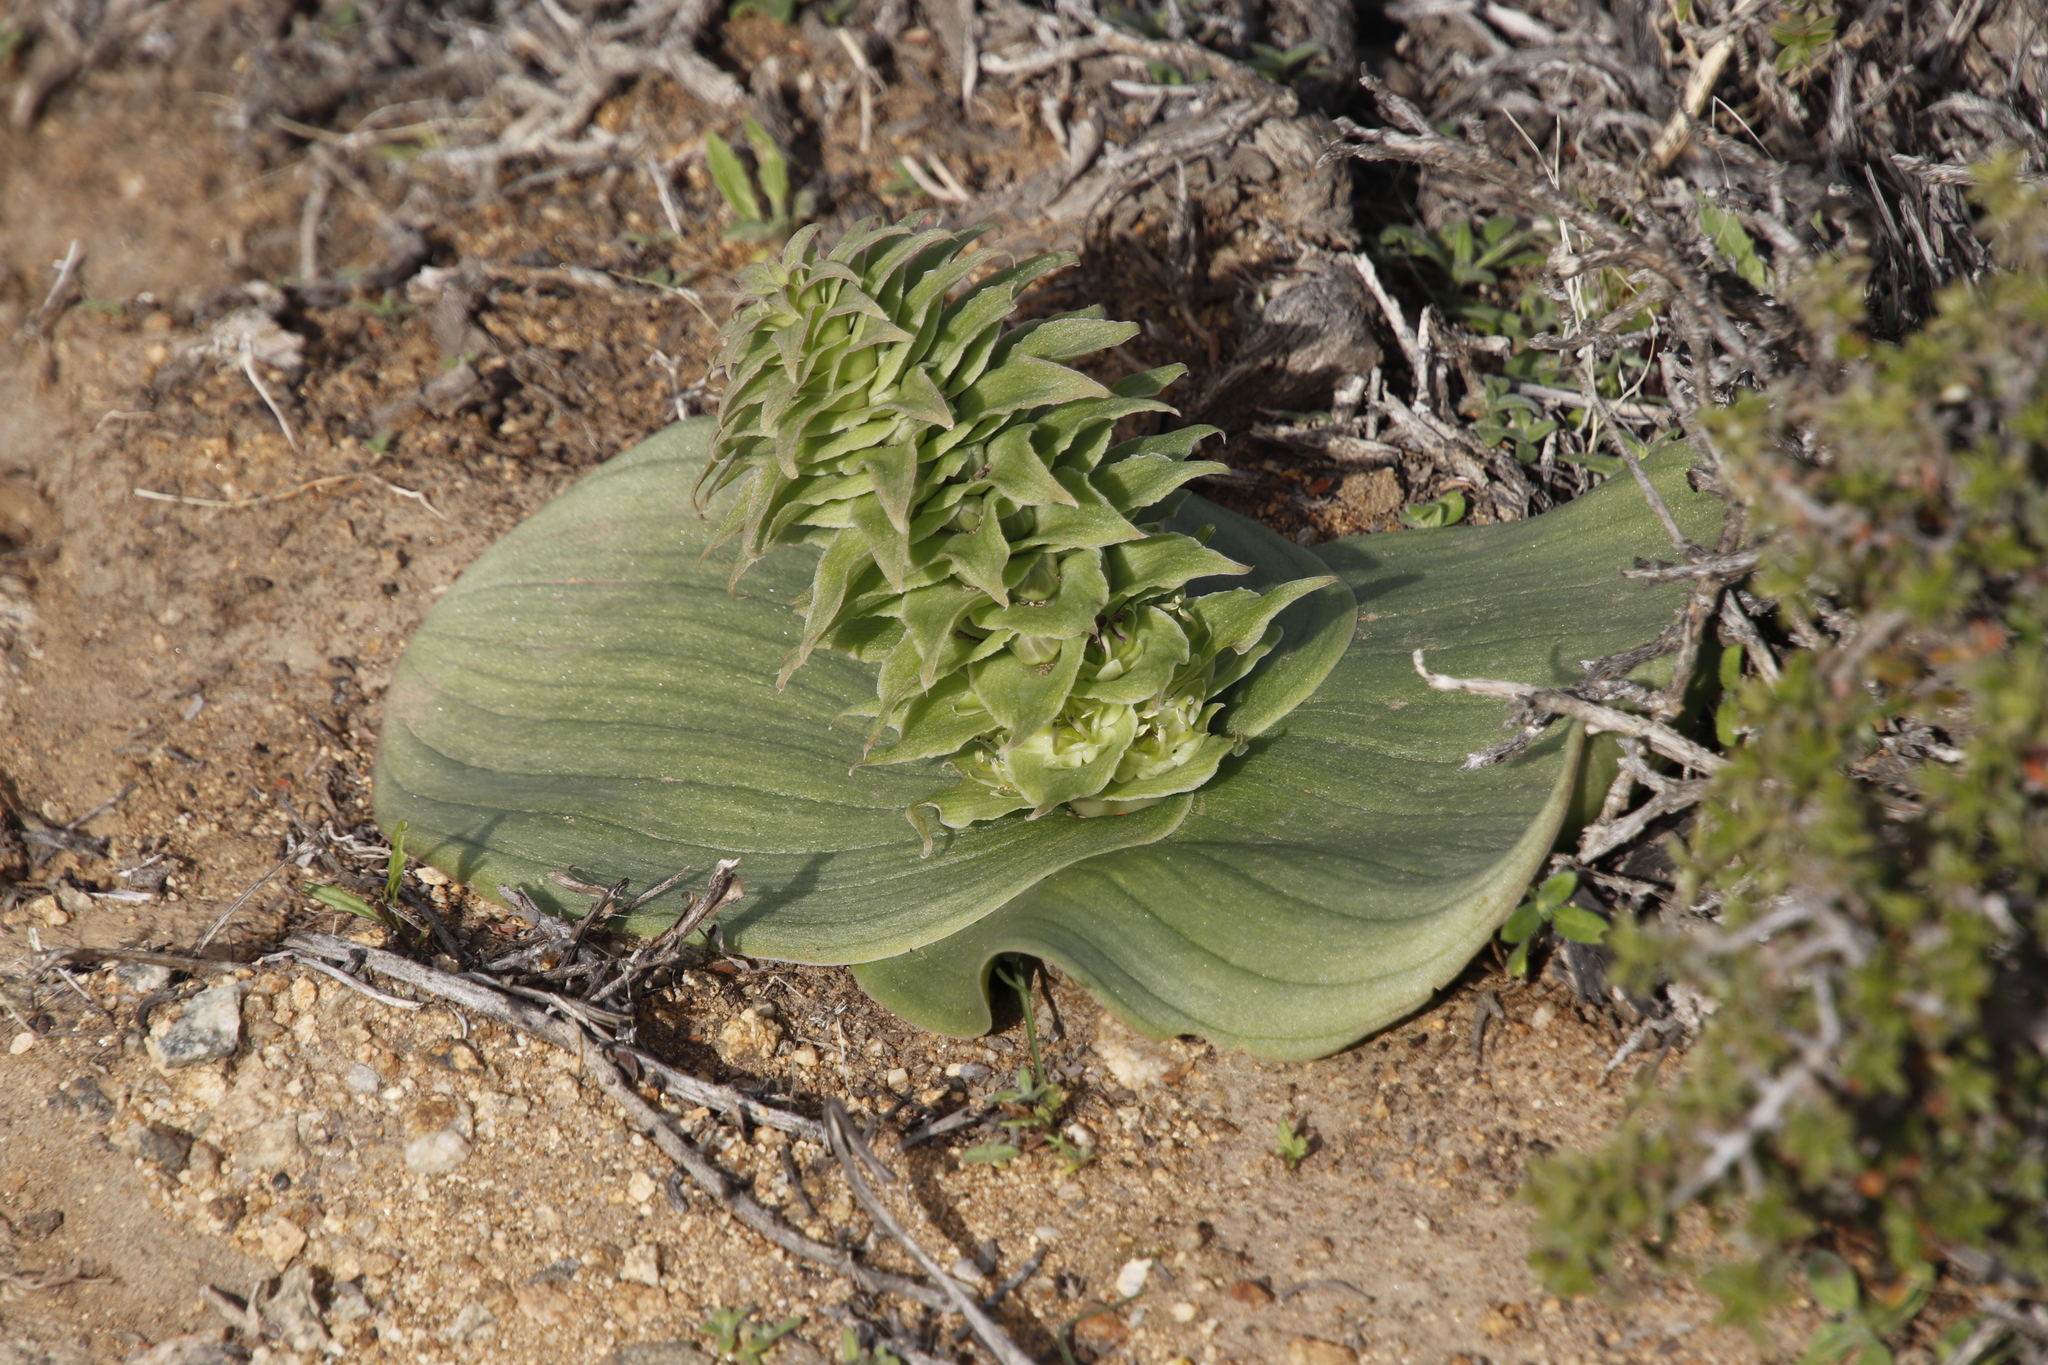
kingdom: Plantae
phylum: Tracheophyta
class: Liliopsida
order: Asparagales
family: Asparagaceae
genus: Massonia
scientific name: Massonia bifolia
